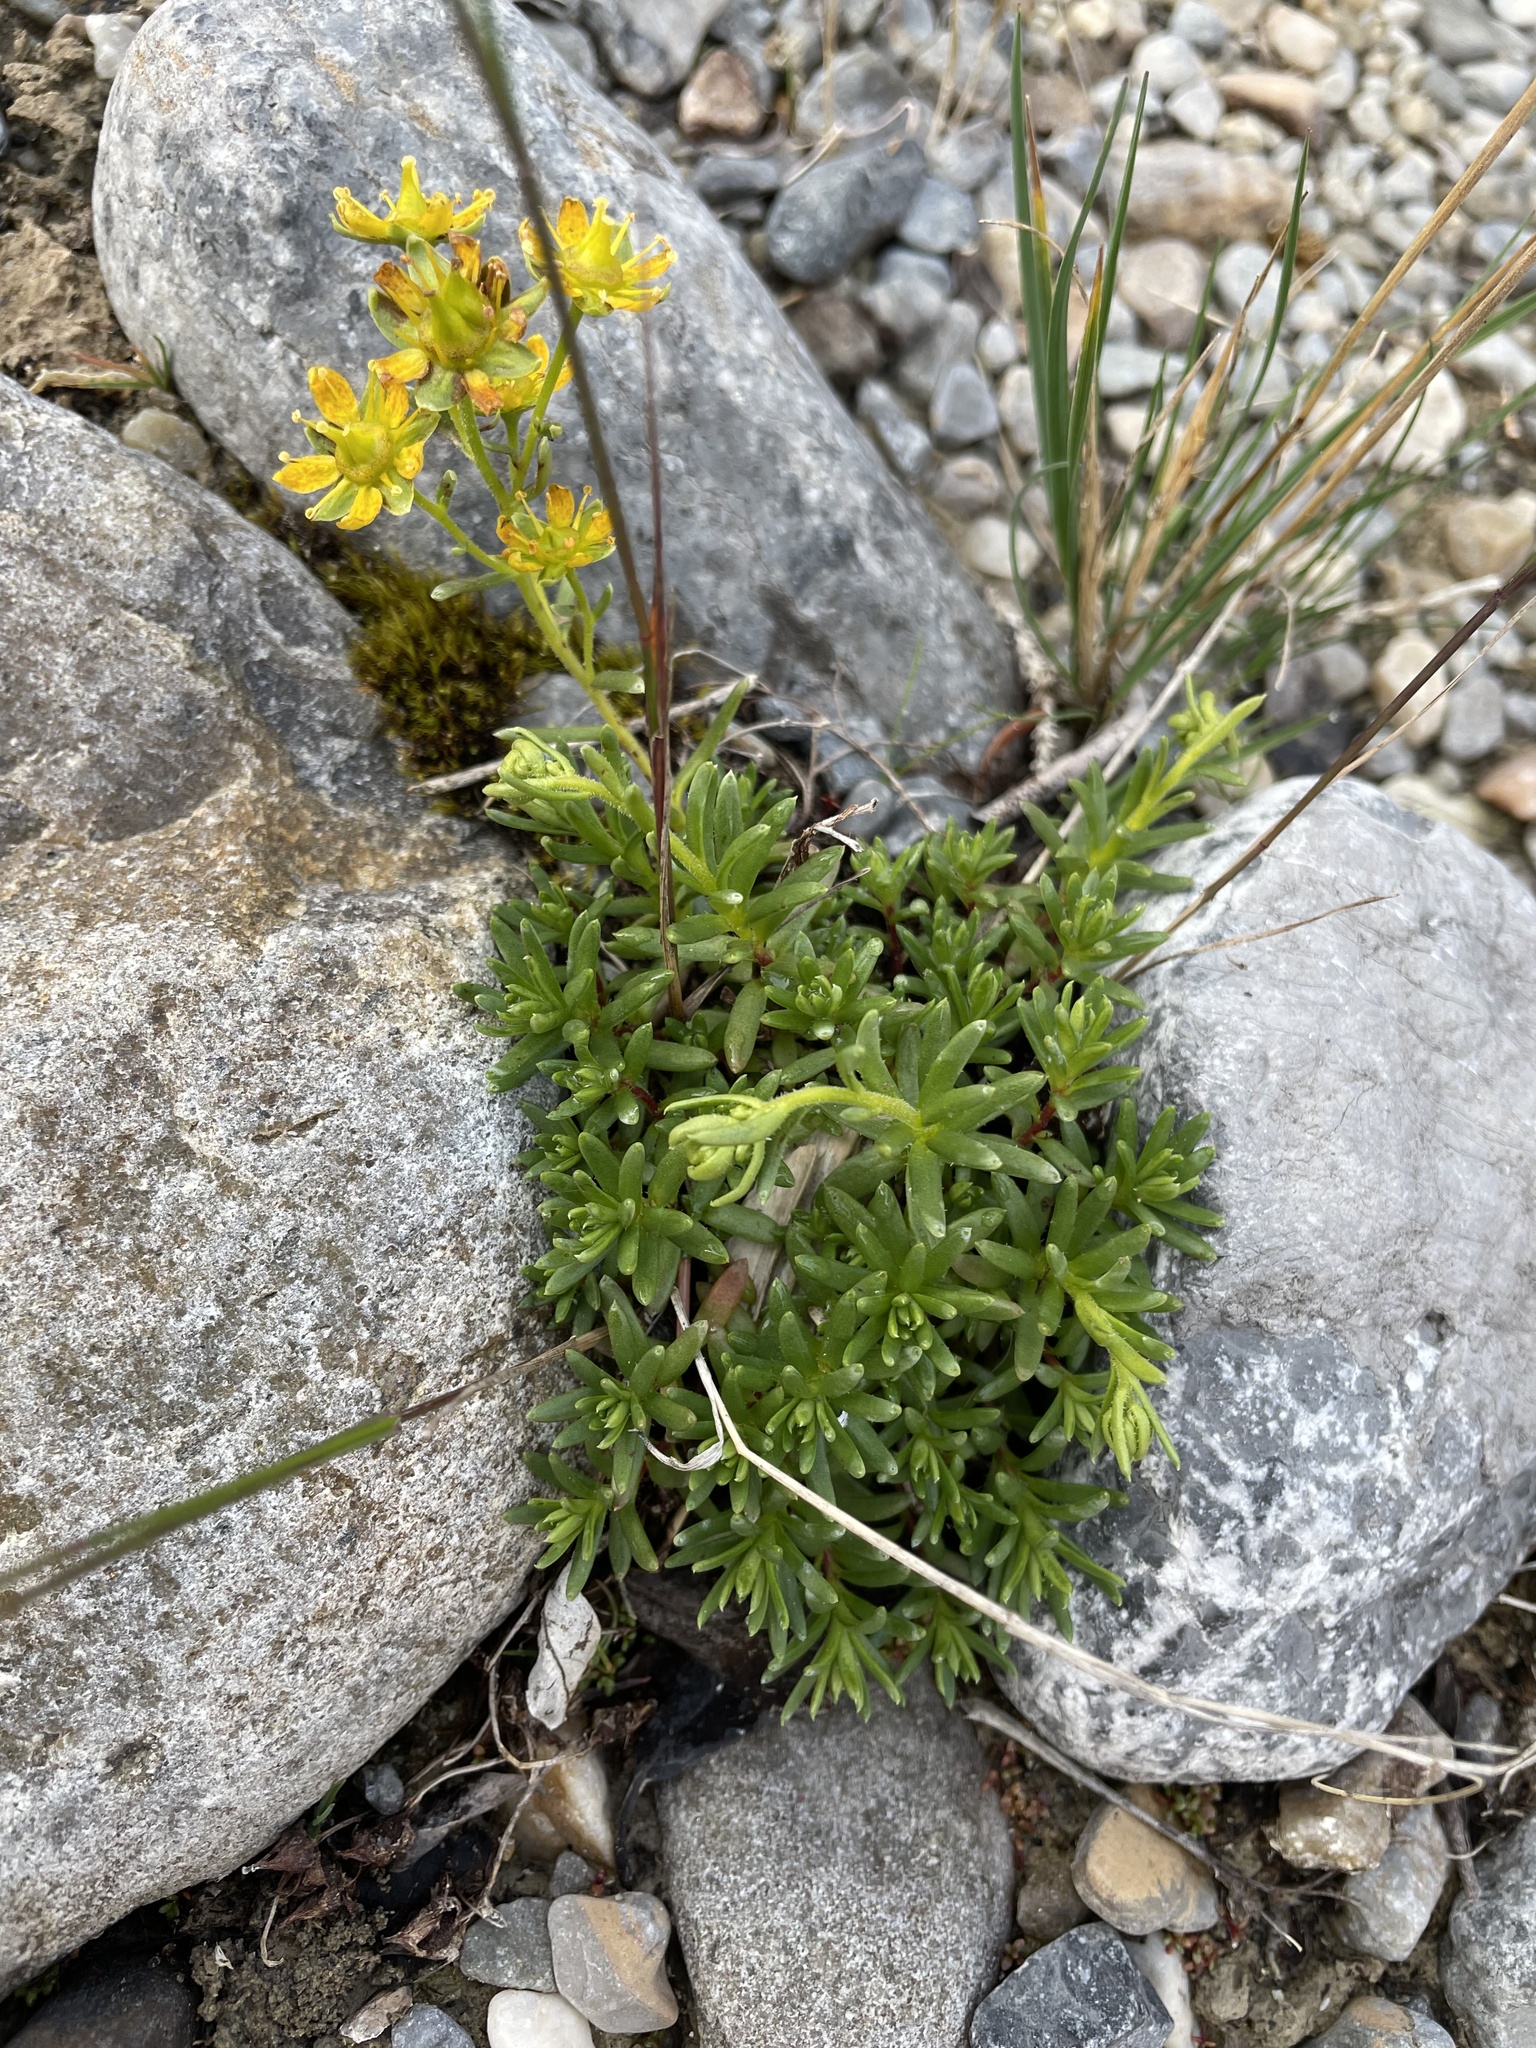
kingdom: Plantae
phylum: Tracheophyta
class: Magnoliopsida
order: Saxifragales
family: Saxifragaceae
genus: Saxifraga
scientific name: Saxifraga aizoides
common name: Yellow mountain saxifrage
